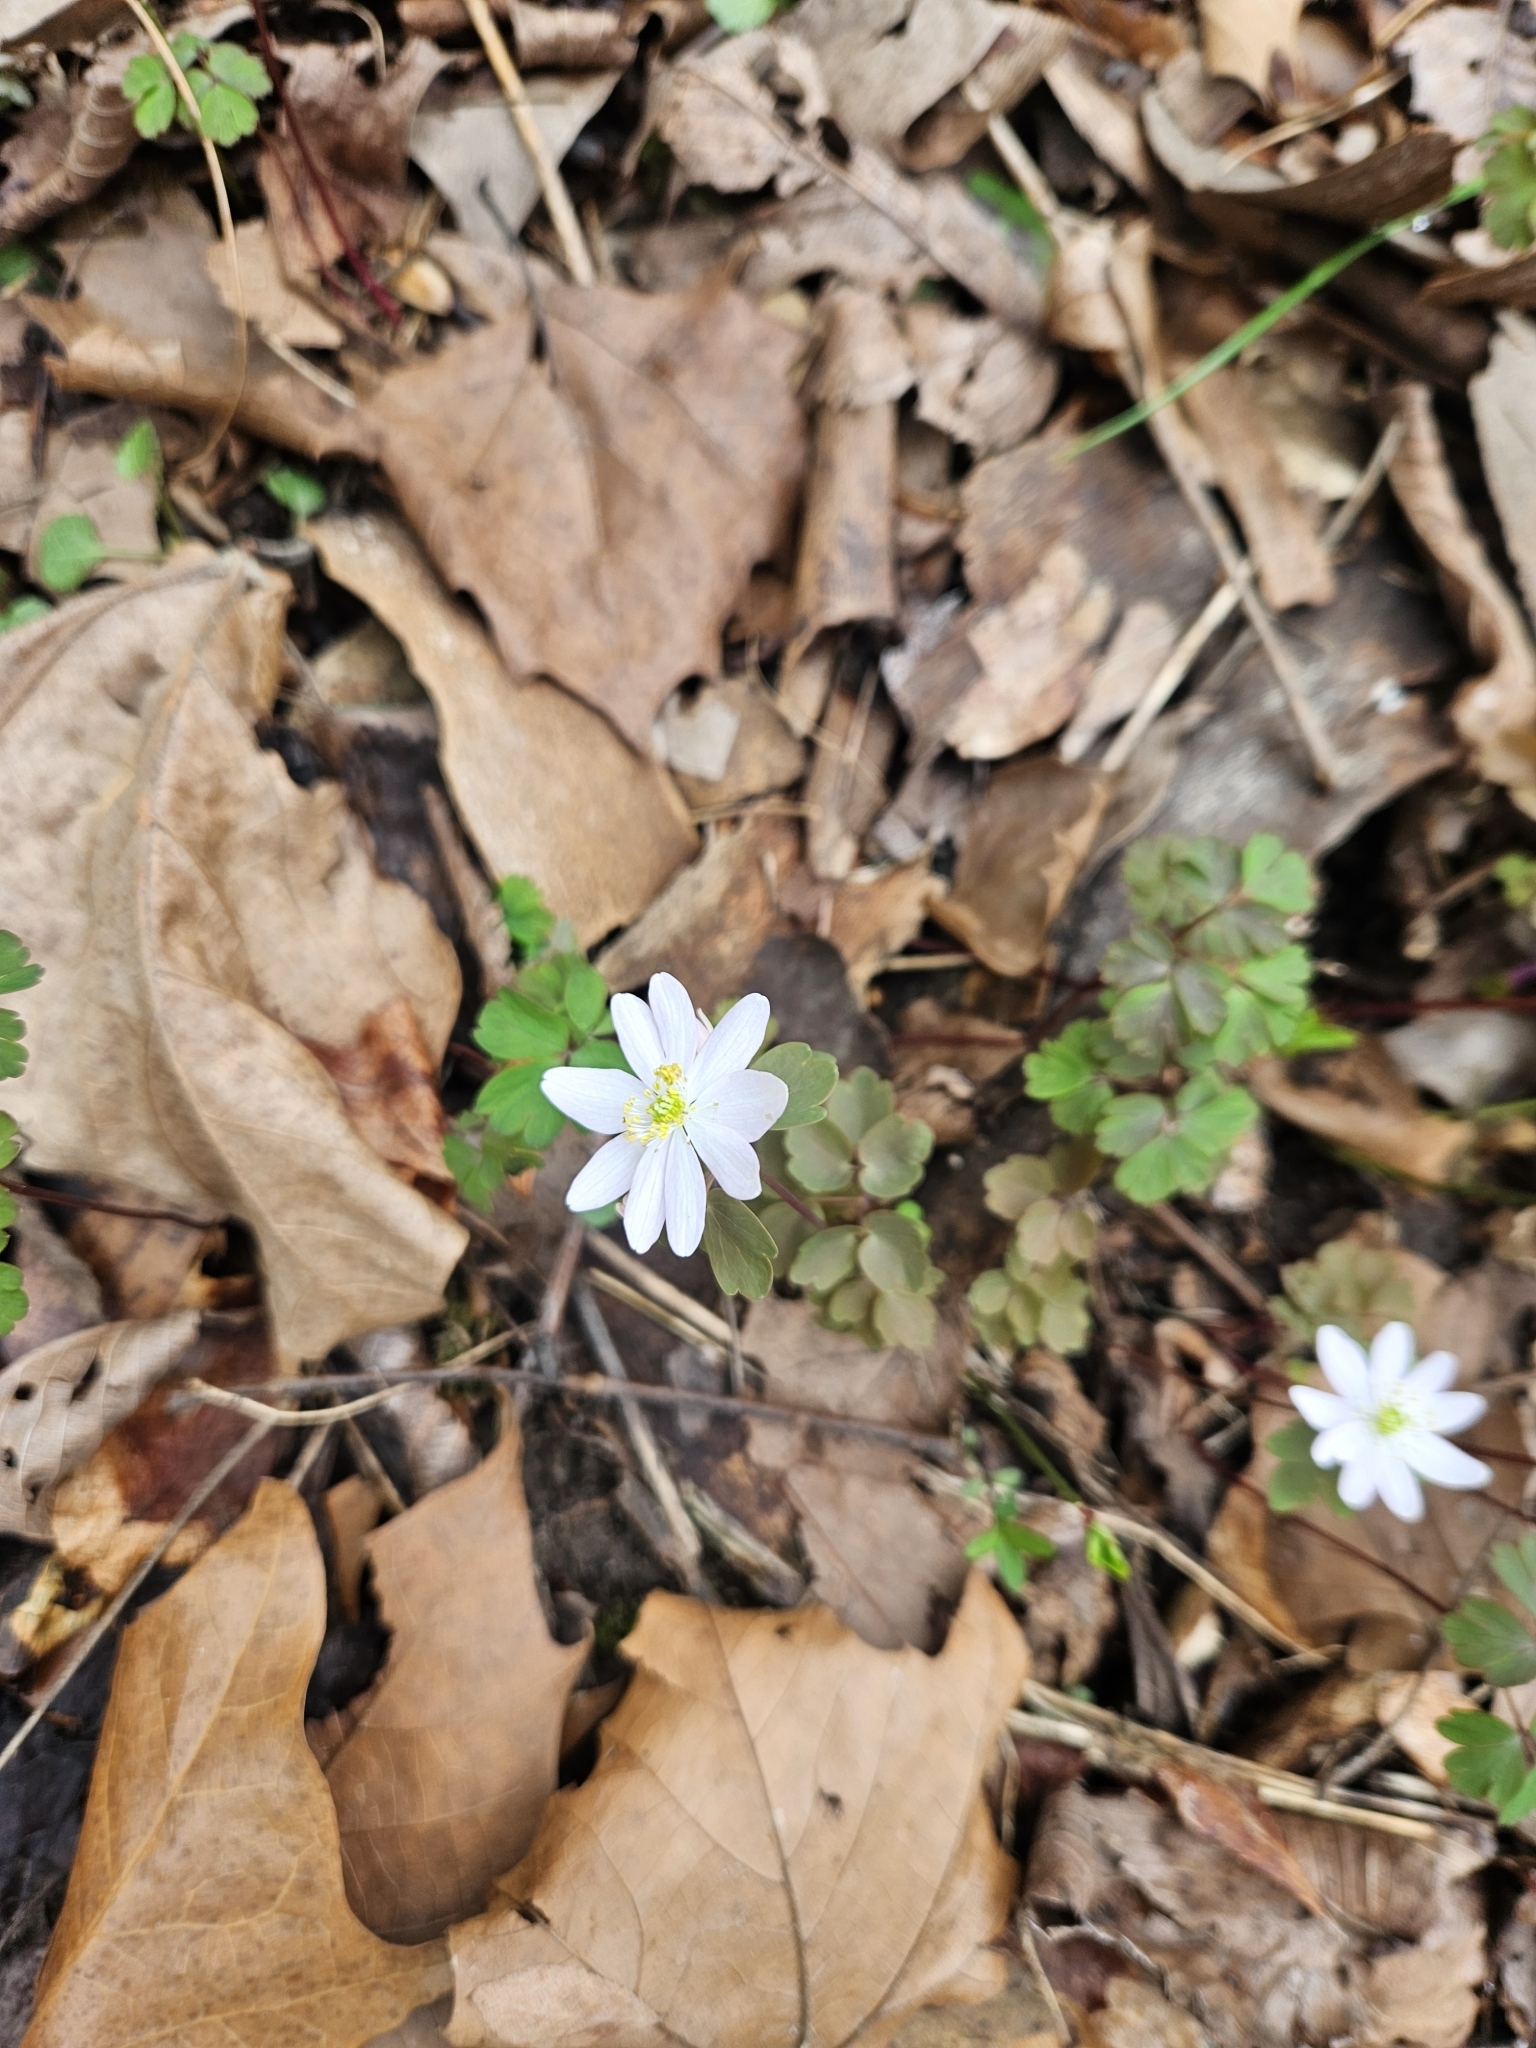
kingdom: Plantae
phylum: Tracheophyta
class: Magnoliopsida
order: Ranunculales
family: Ranunculaceae
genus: Thalictrum
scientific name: Thalictrum thalictroides
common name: Rue-anemone
